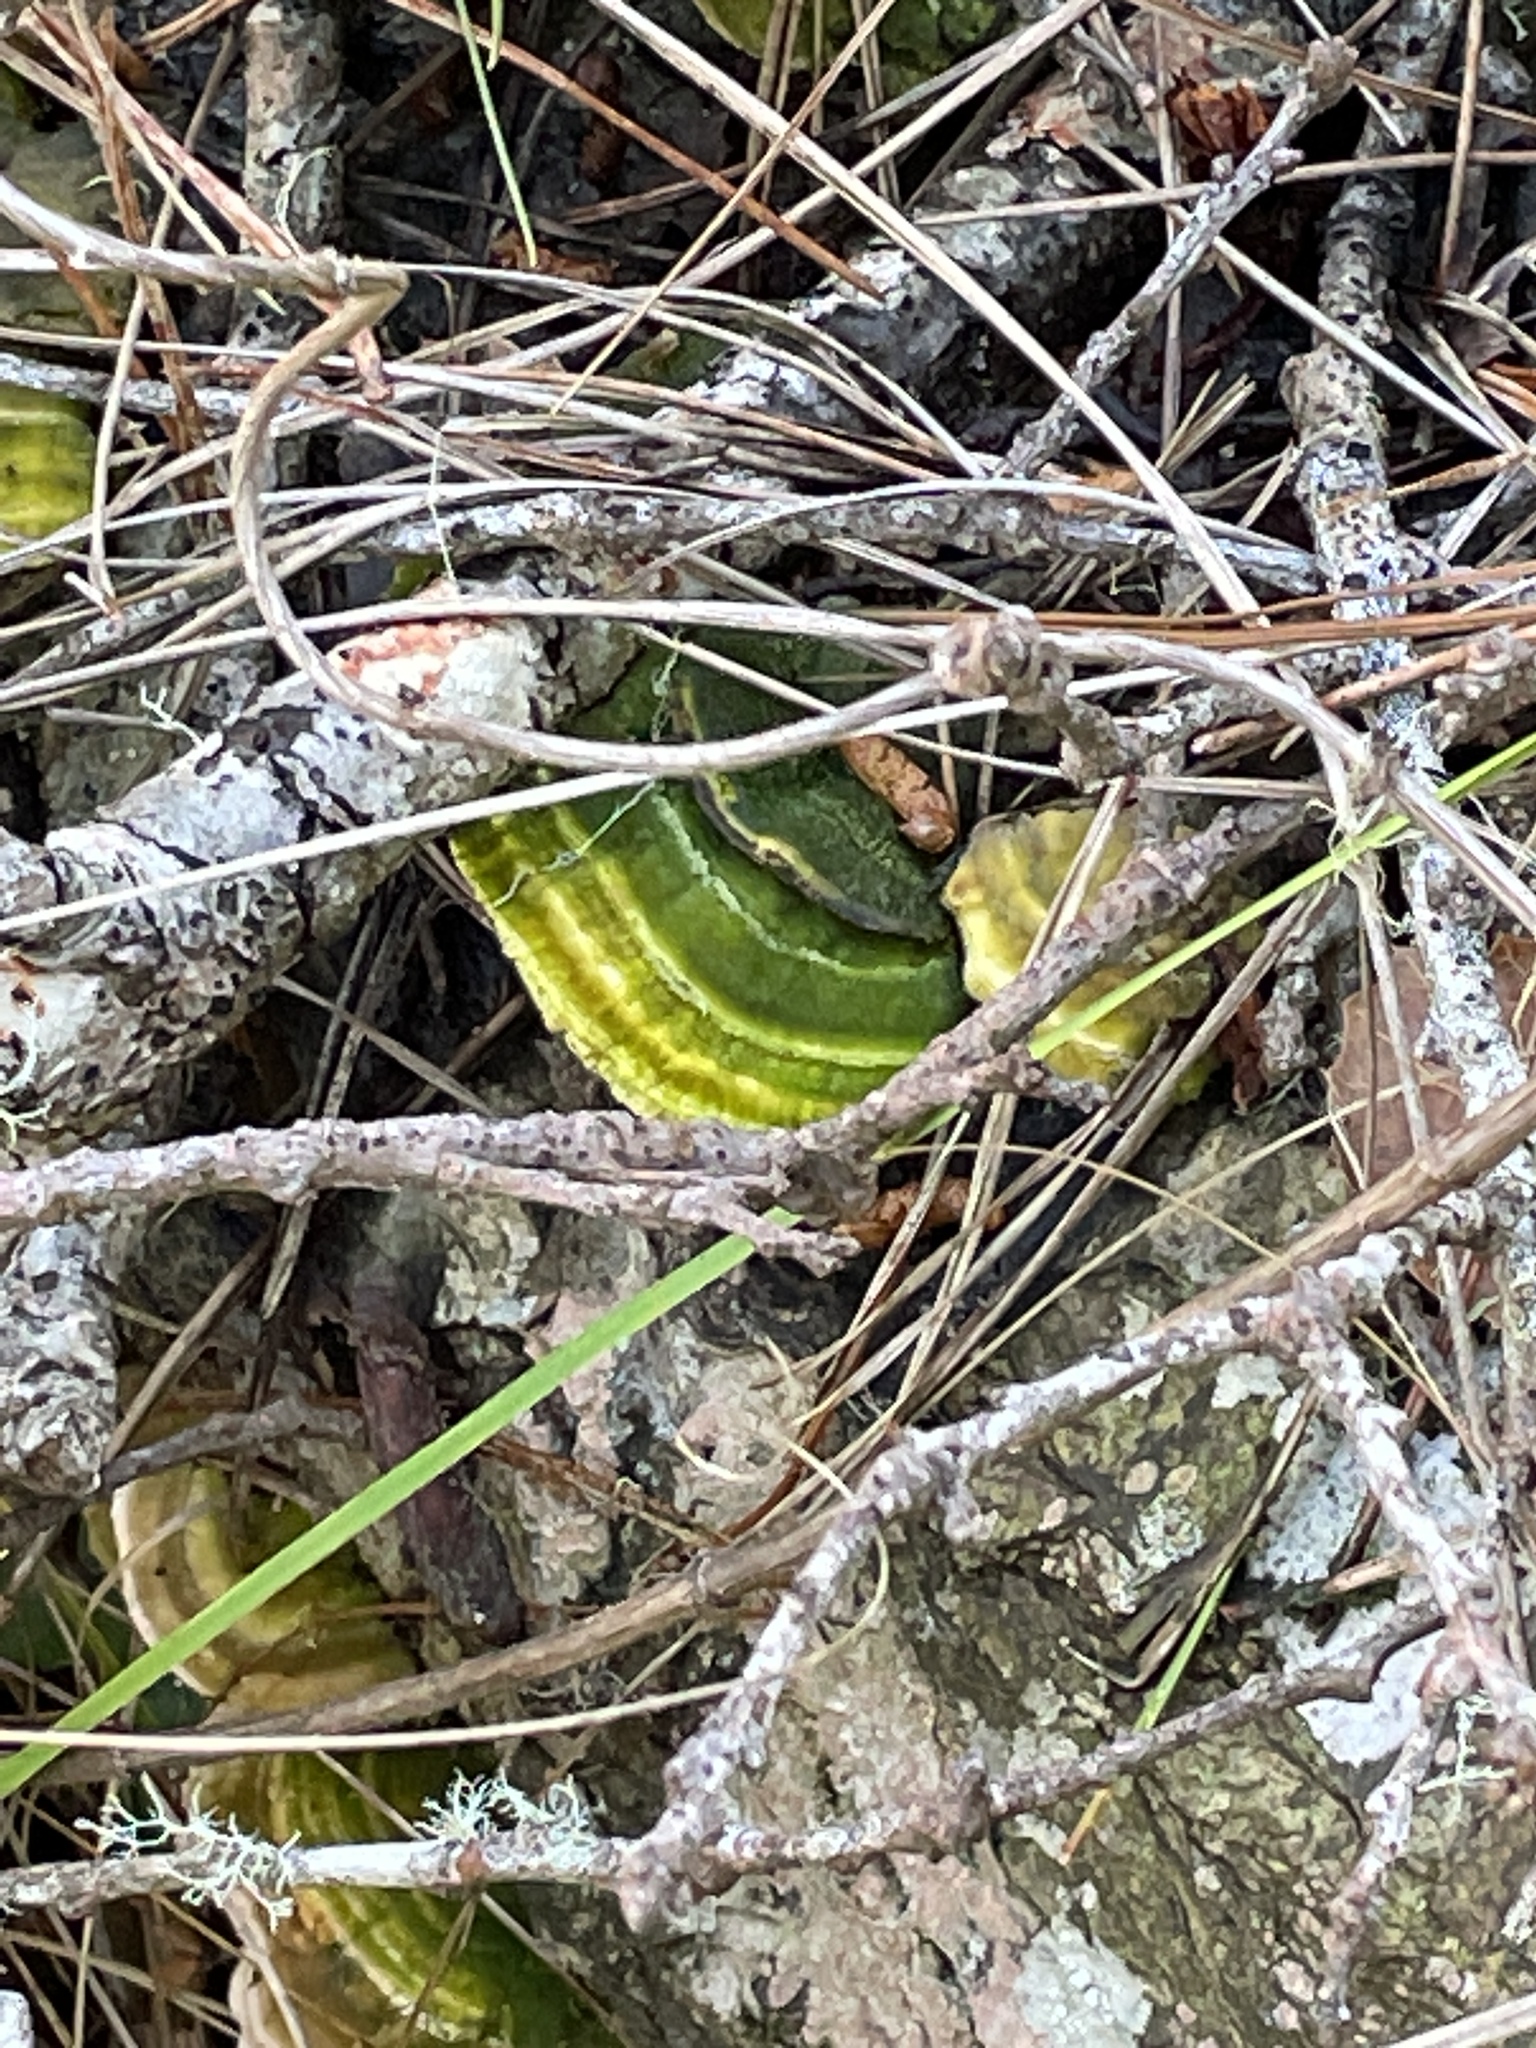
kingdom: Fungi
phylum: Basidiomycota
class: Agaricomycetes
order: Polyporales
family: Polyporaceae
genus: Lenzites
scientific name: Lenzites betulinus
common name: Birch mazegill
